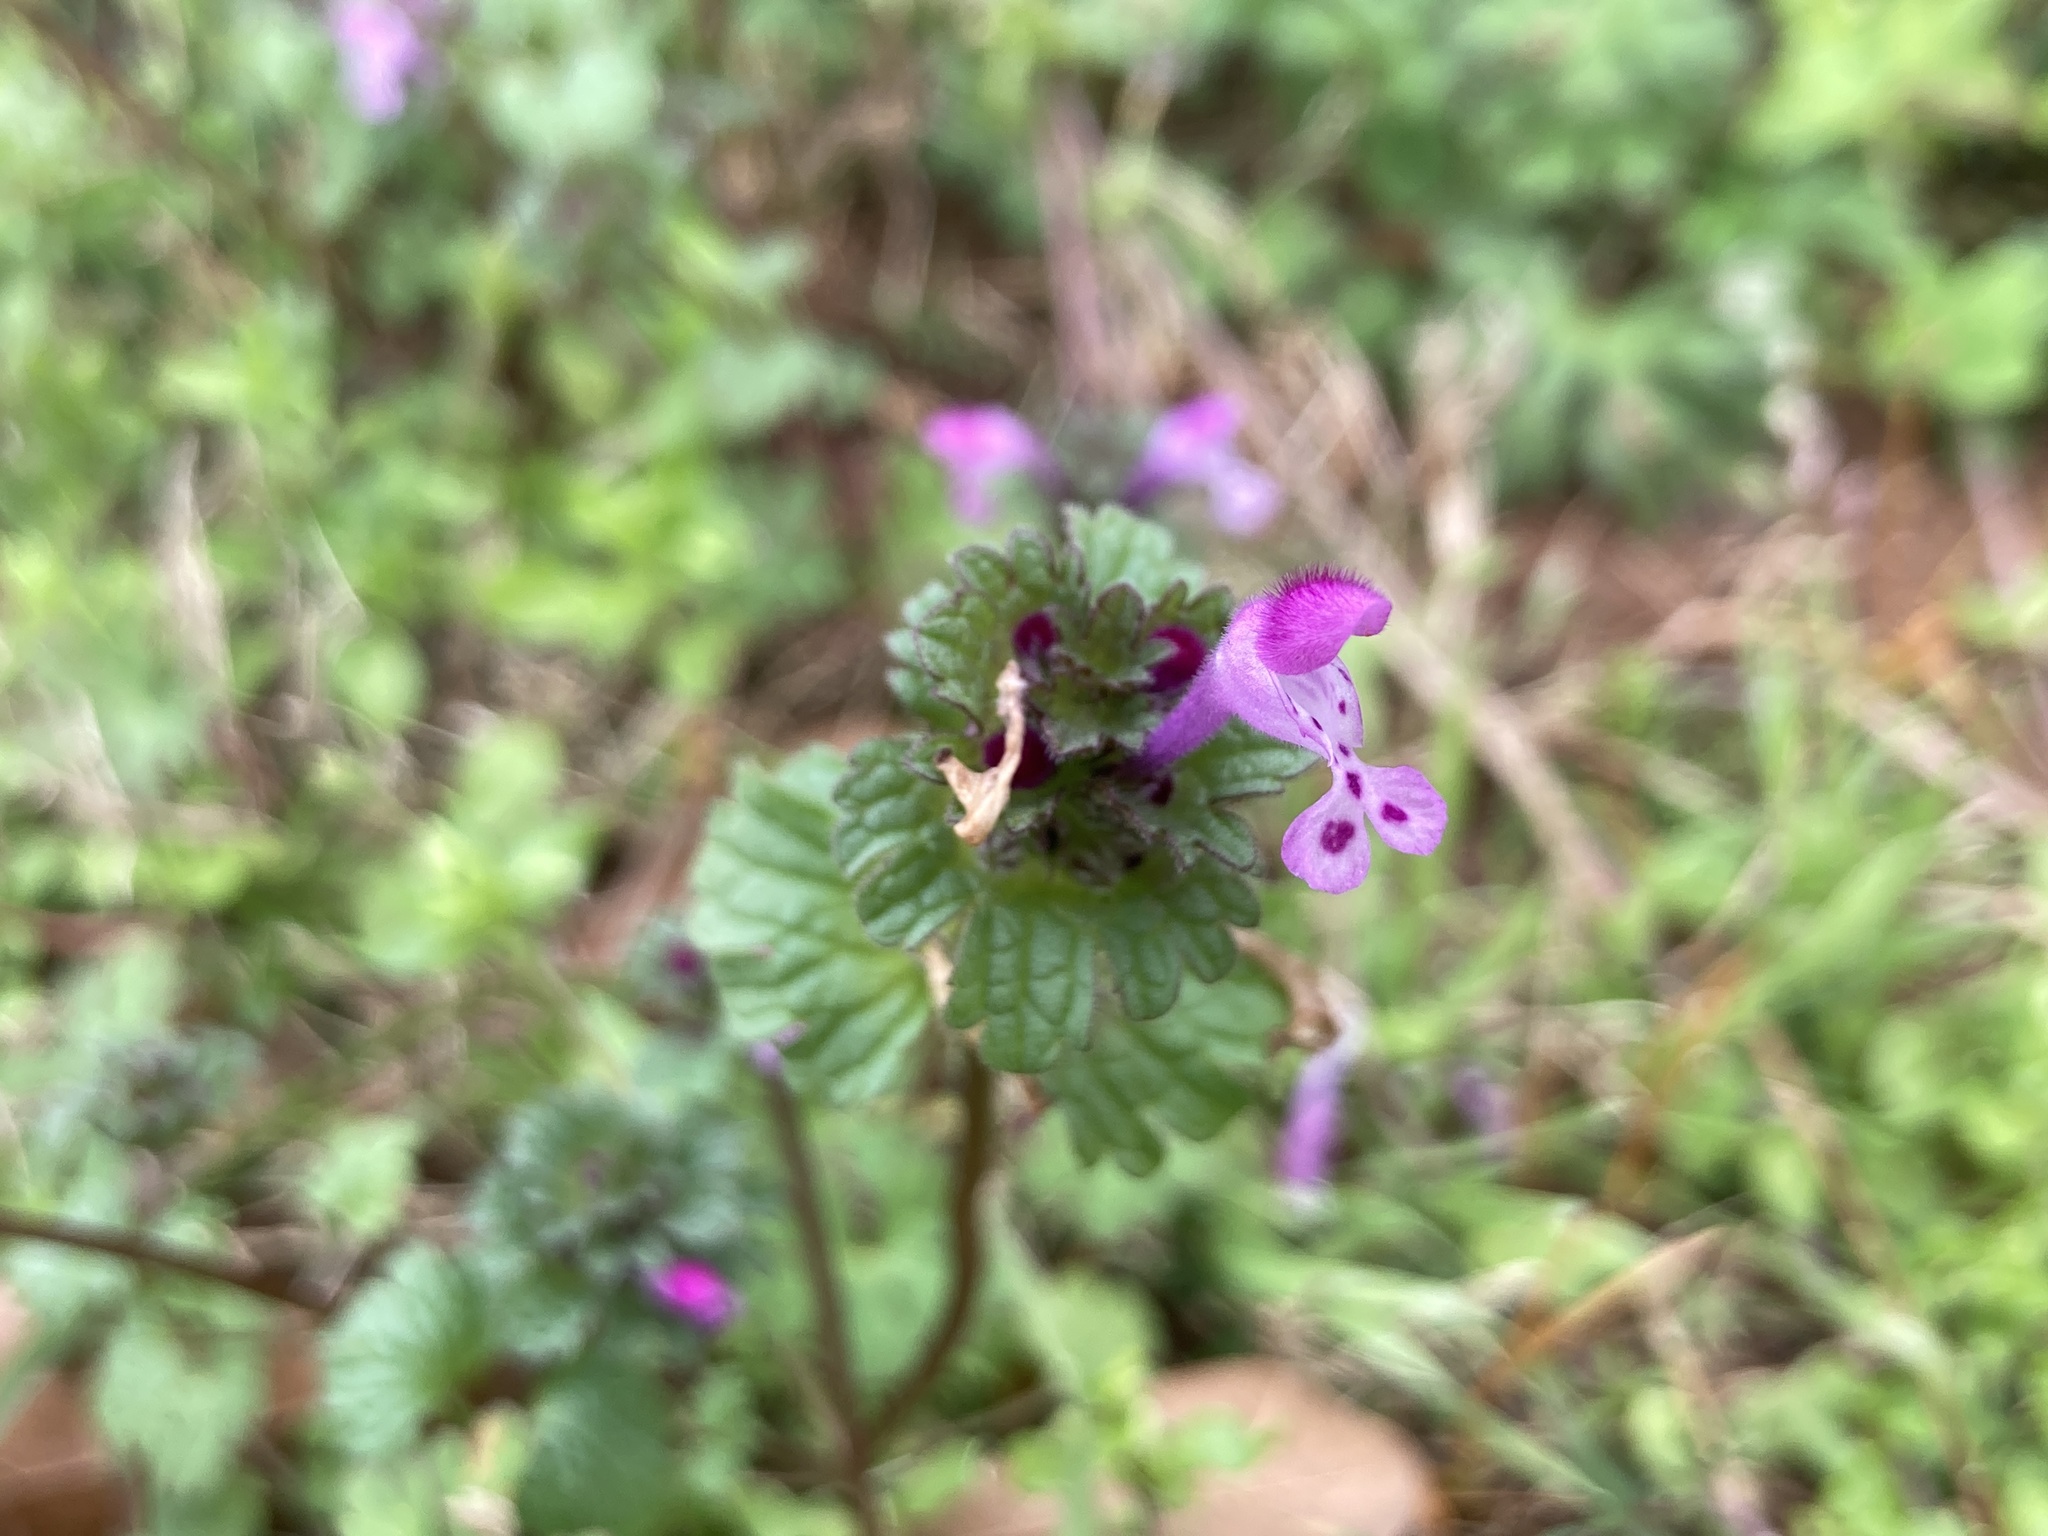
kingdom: Plantae
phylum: Tracheophyta
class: Magnoliopsida
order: Lamiales
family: Lamiaceae
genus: Lamium
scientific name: Lamium amplexicaule
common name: Henbit dead-nettle
